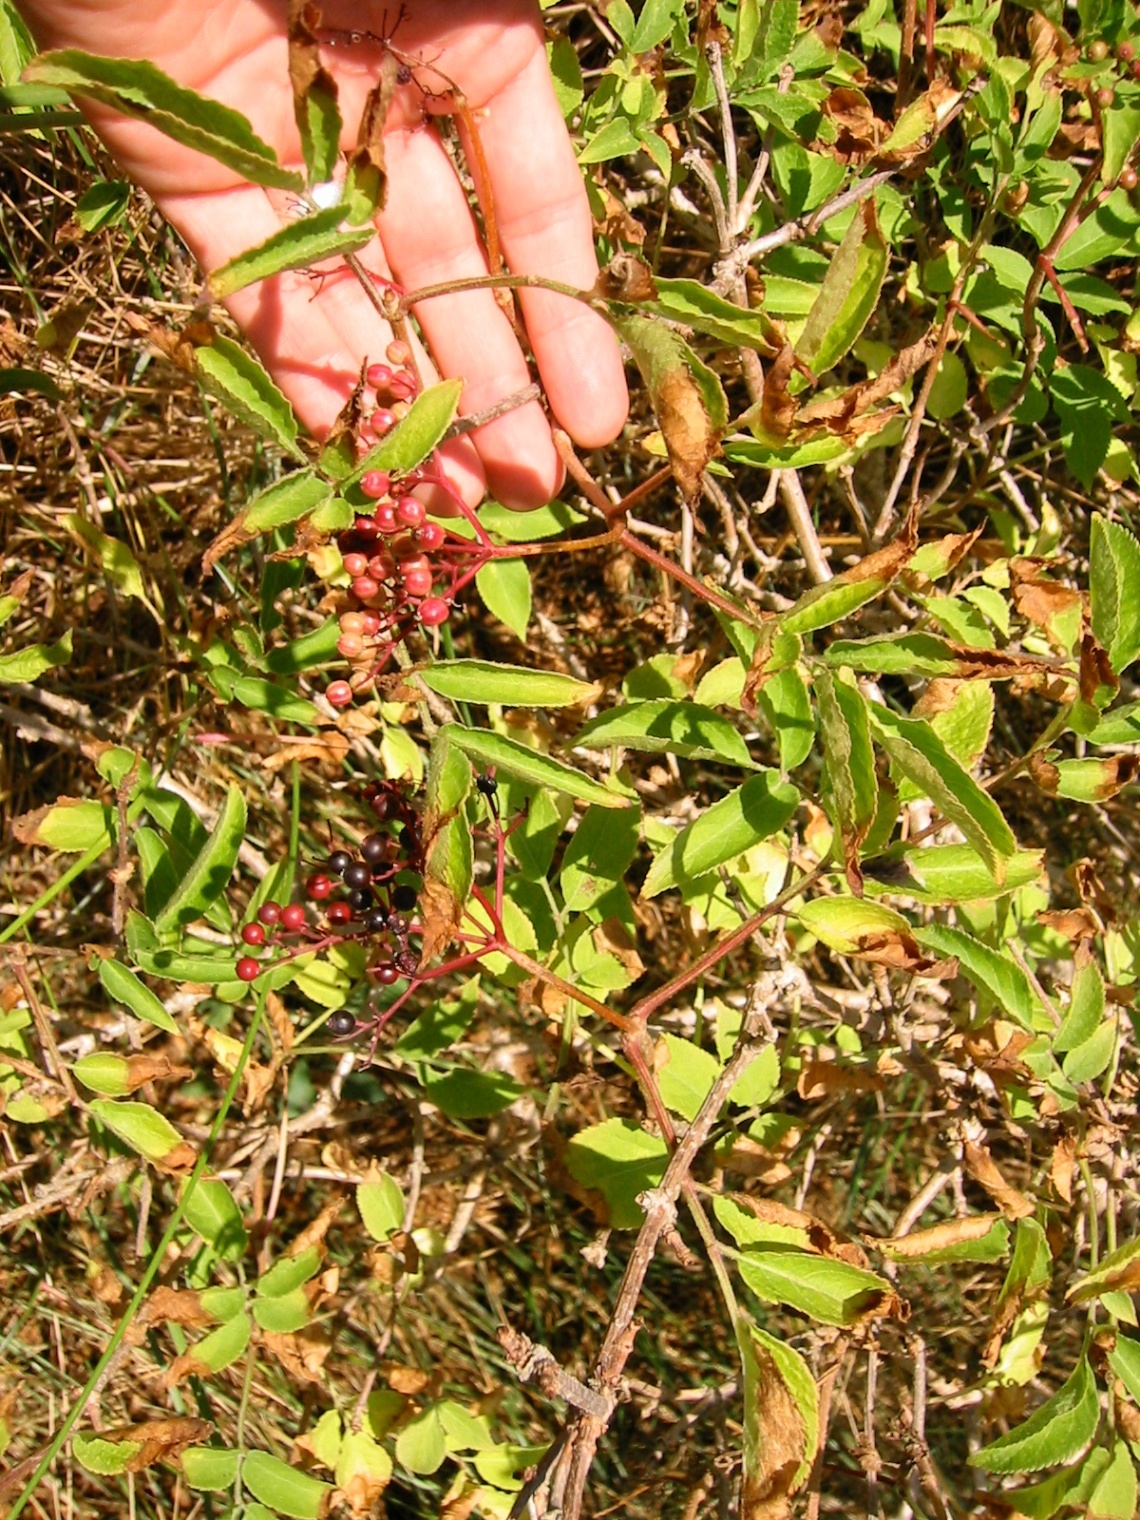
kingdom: Plantae
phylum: Tracheophyta
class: Magnoliopsida
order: Dipsacales
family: Viburnaceae
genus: Sambucus
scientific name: Sambucus nigra
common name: Elder
